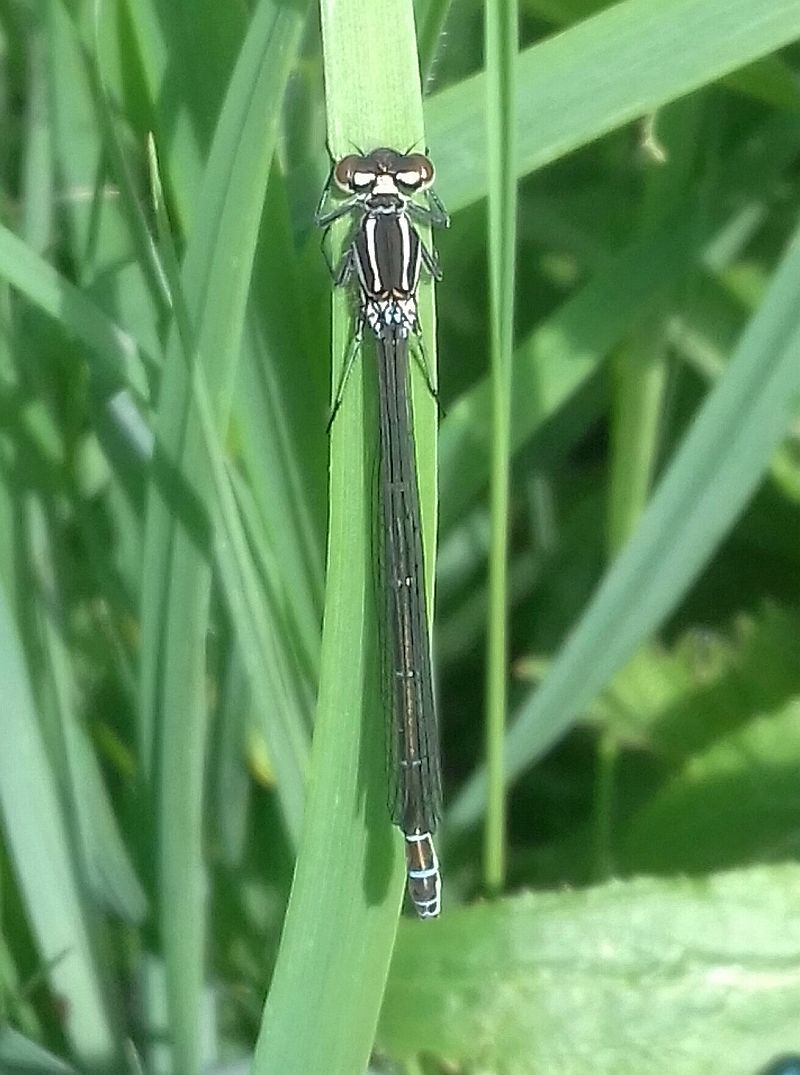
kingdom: Animalia
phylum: Arthropoda
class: Insecta
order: Odonata
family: Coenagrionidae
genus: Coenagrion
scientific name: Coenagrion puella
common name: Azure damselfly
